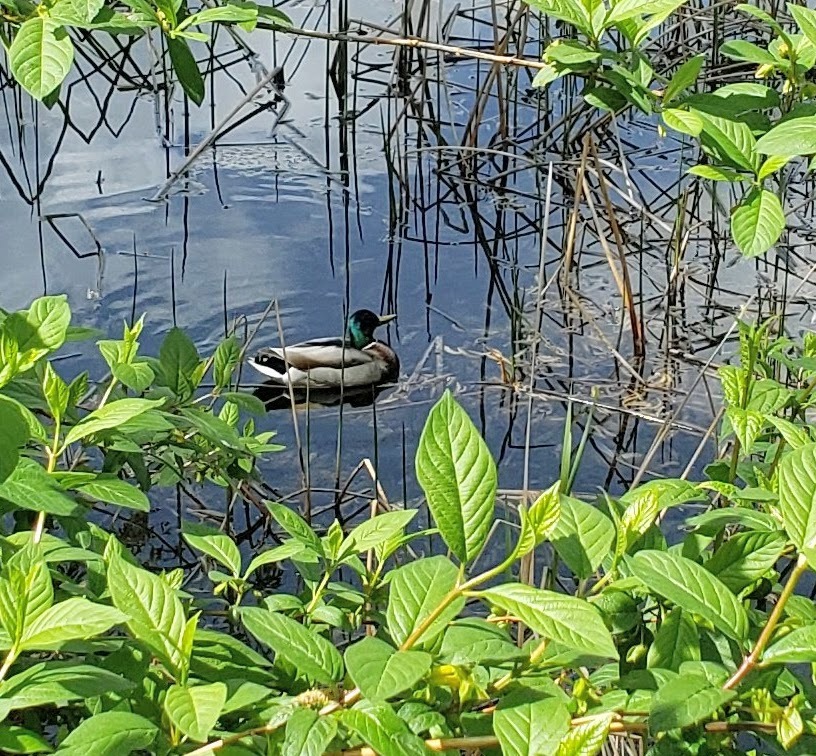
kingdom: Animalia
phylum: Chordata
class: Aves
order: Anseriformes
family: Anatidae
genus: Anas
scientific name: Anas platyrhynchos
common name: Mallard
